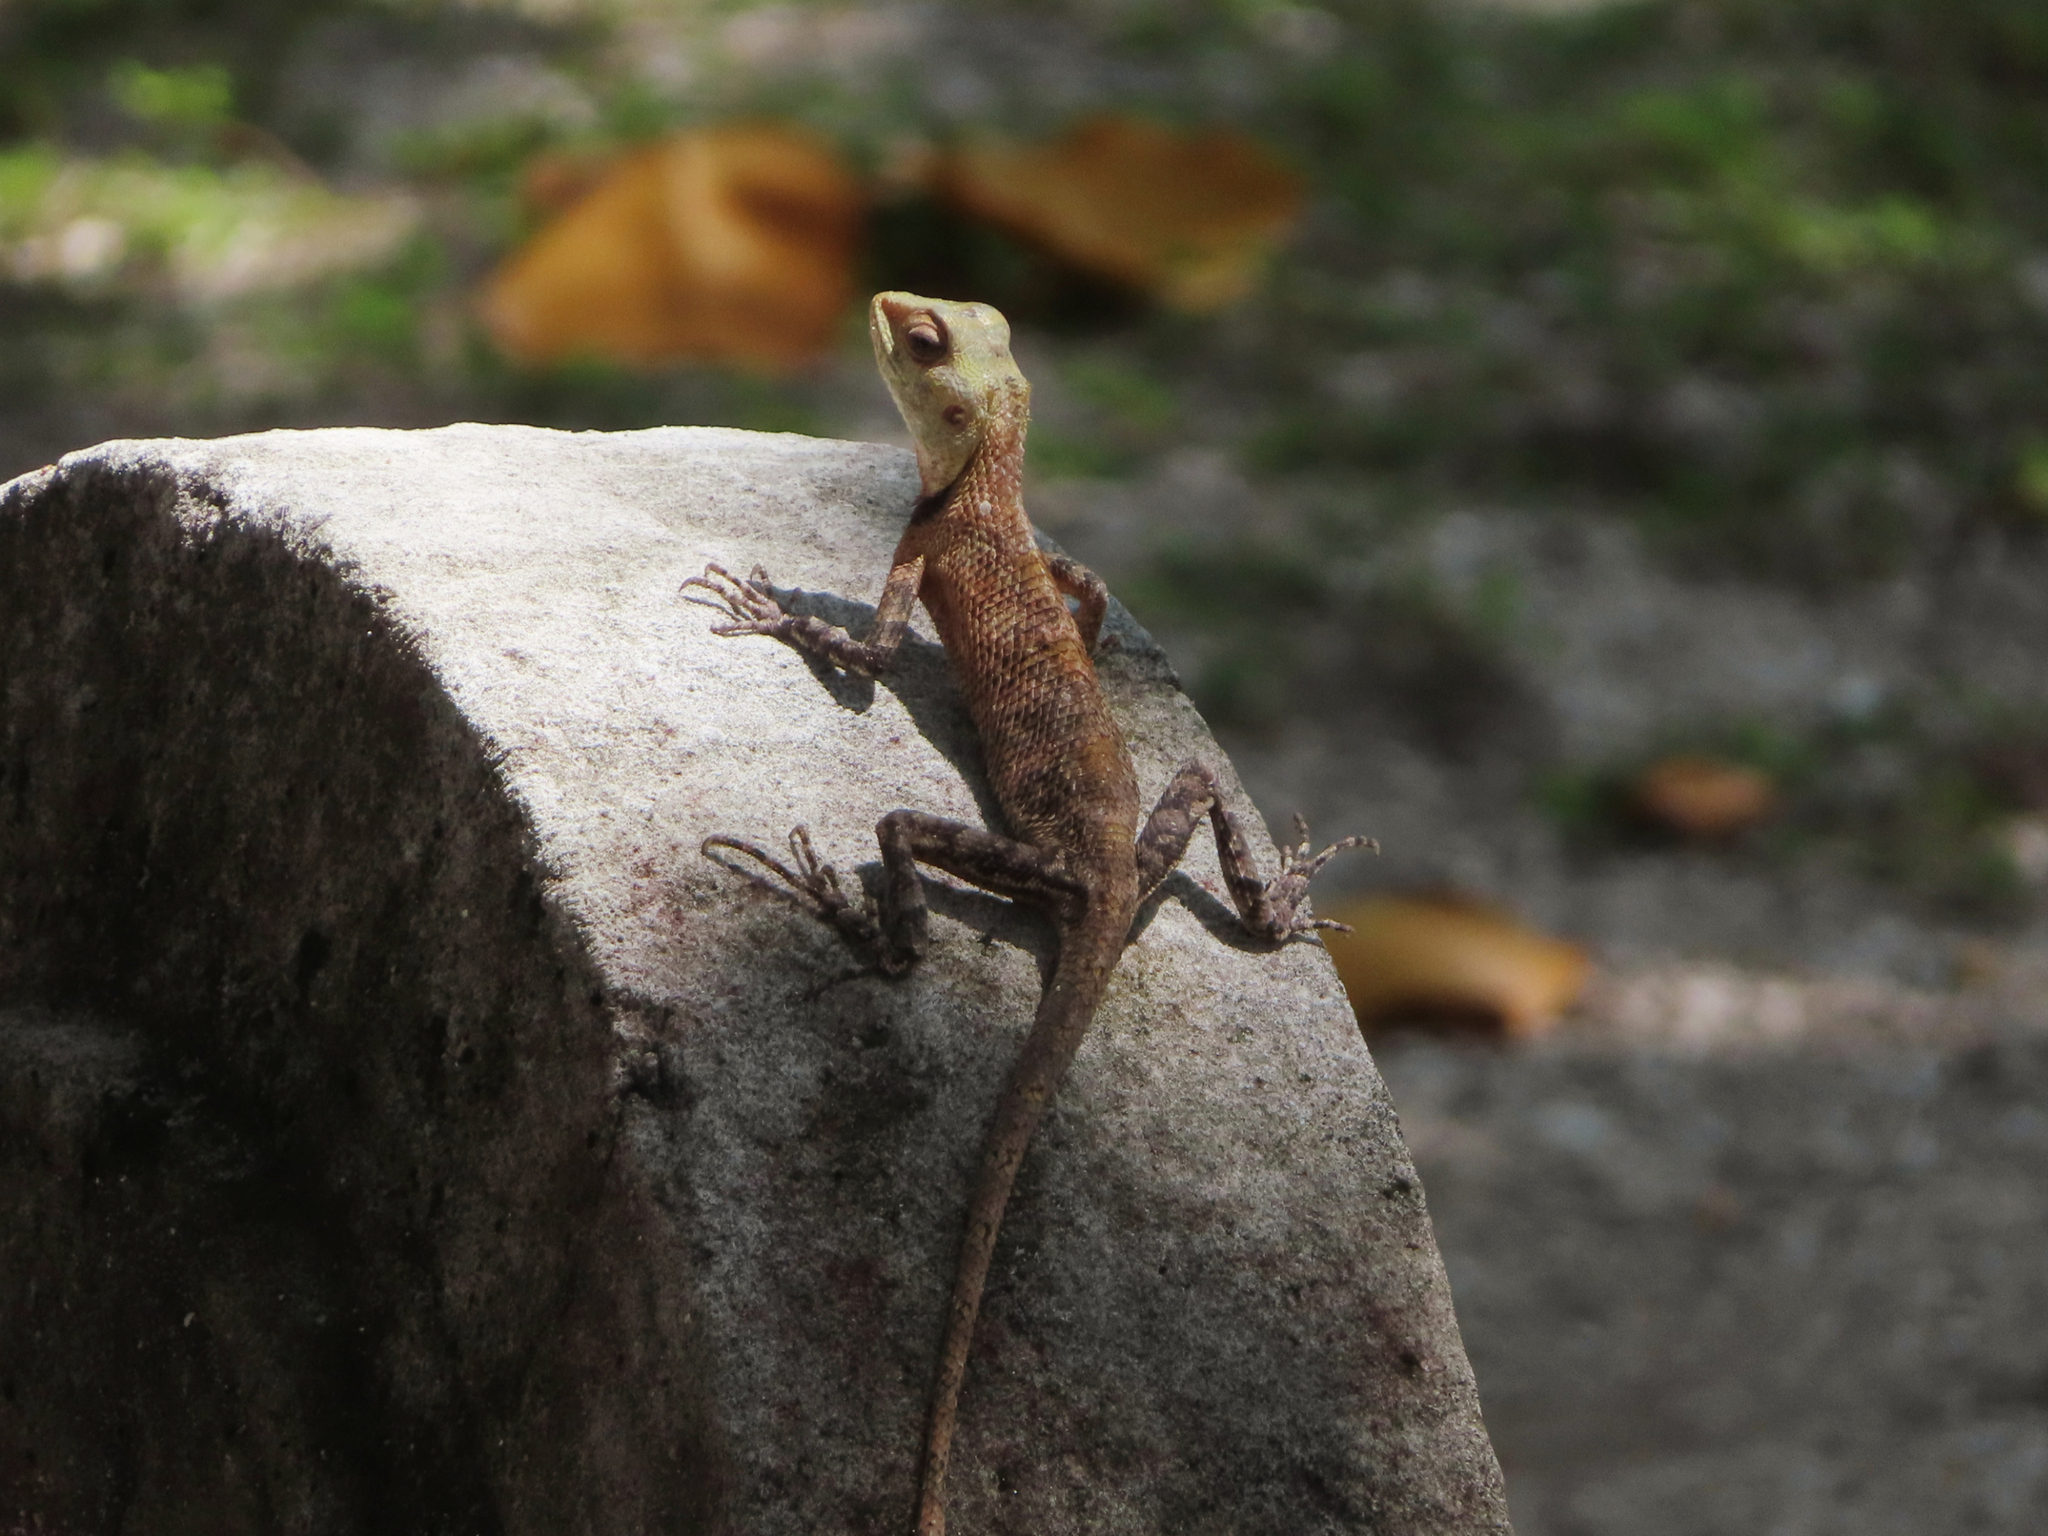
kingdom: Animalia
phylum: Chordata
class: Squamata
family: Agamidae
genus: Calotes
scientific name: Calotes versicolor
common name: Oriental garden lizard
